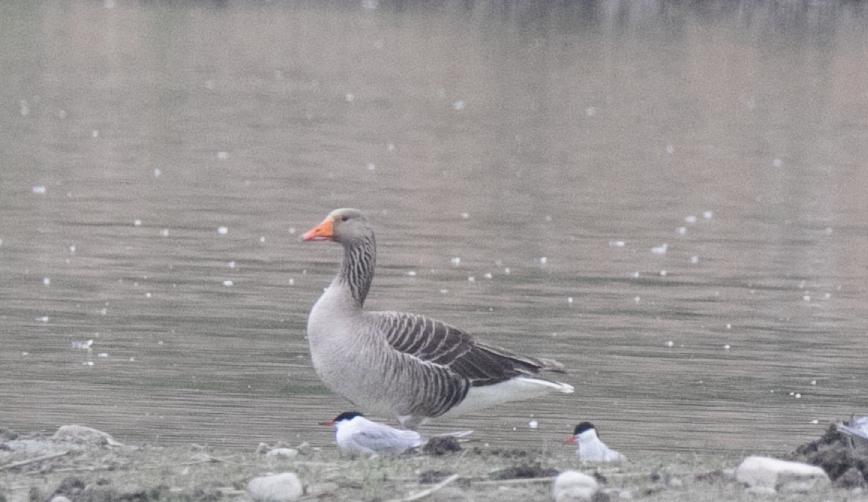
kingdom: Animalia
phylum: Chordata
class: Aves
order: Anseriformes
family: Anatidae
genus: Anser
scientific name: Anser anser
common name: Greylag goose
